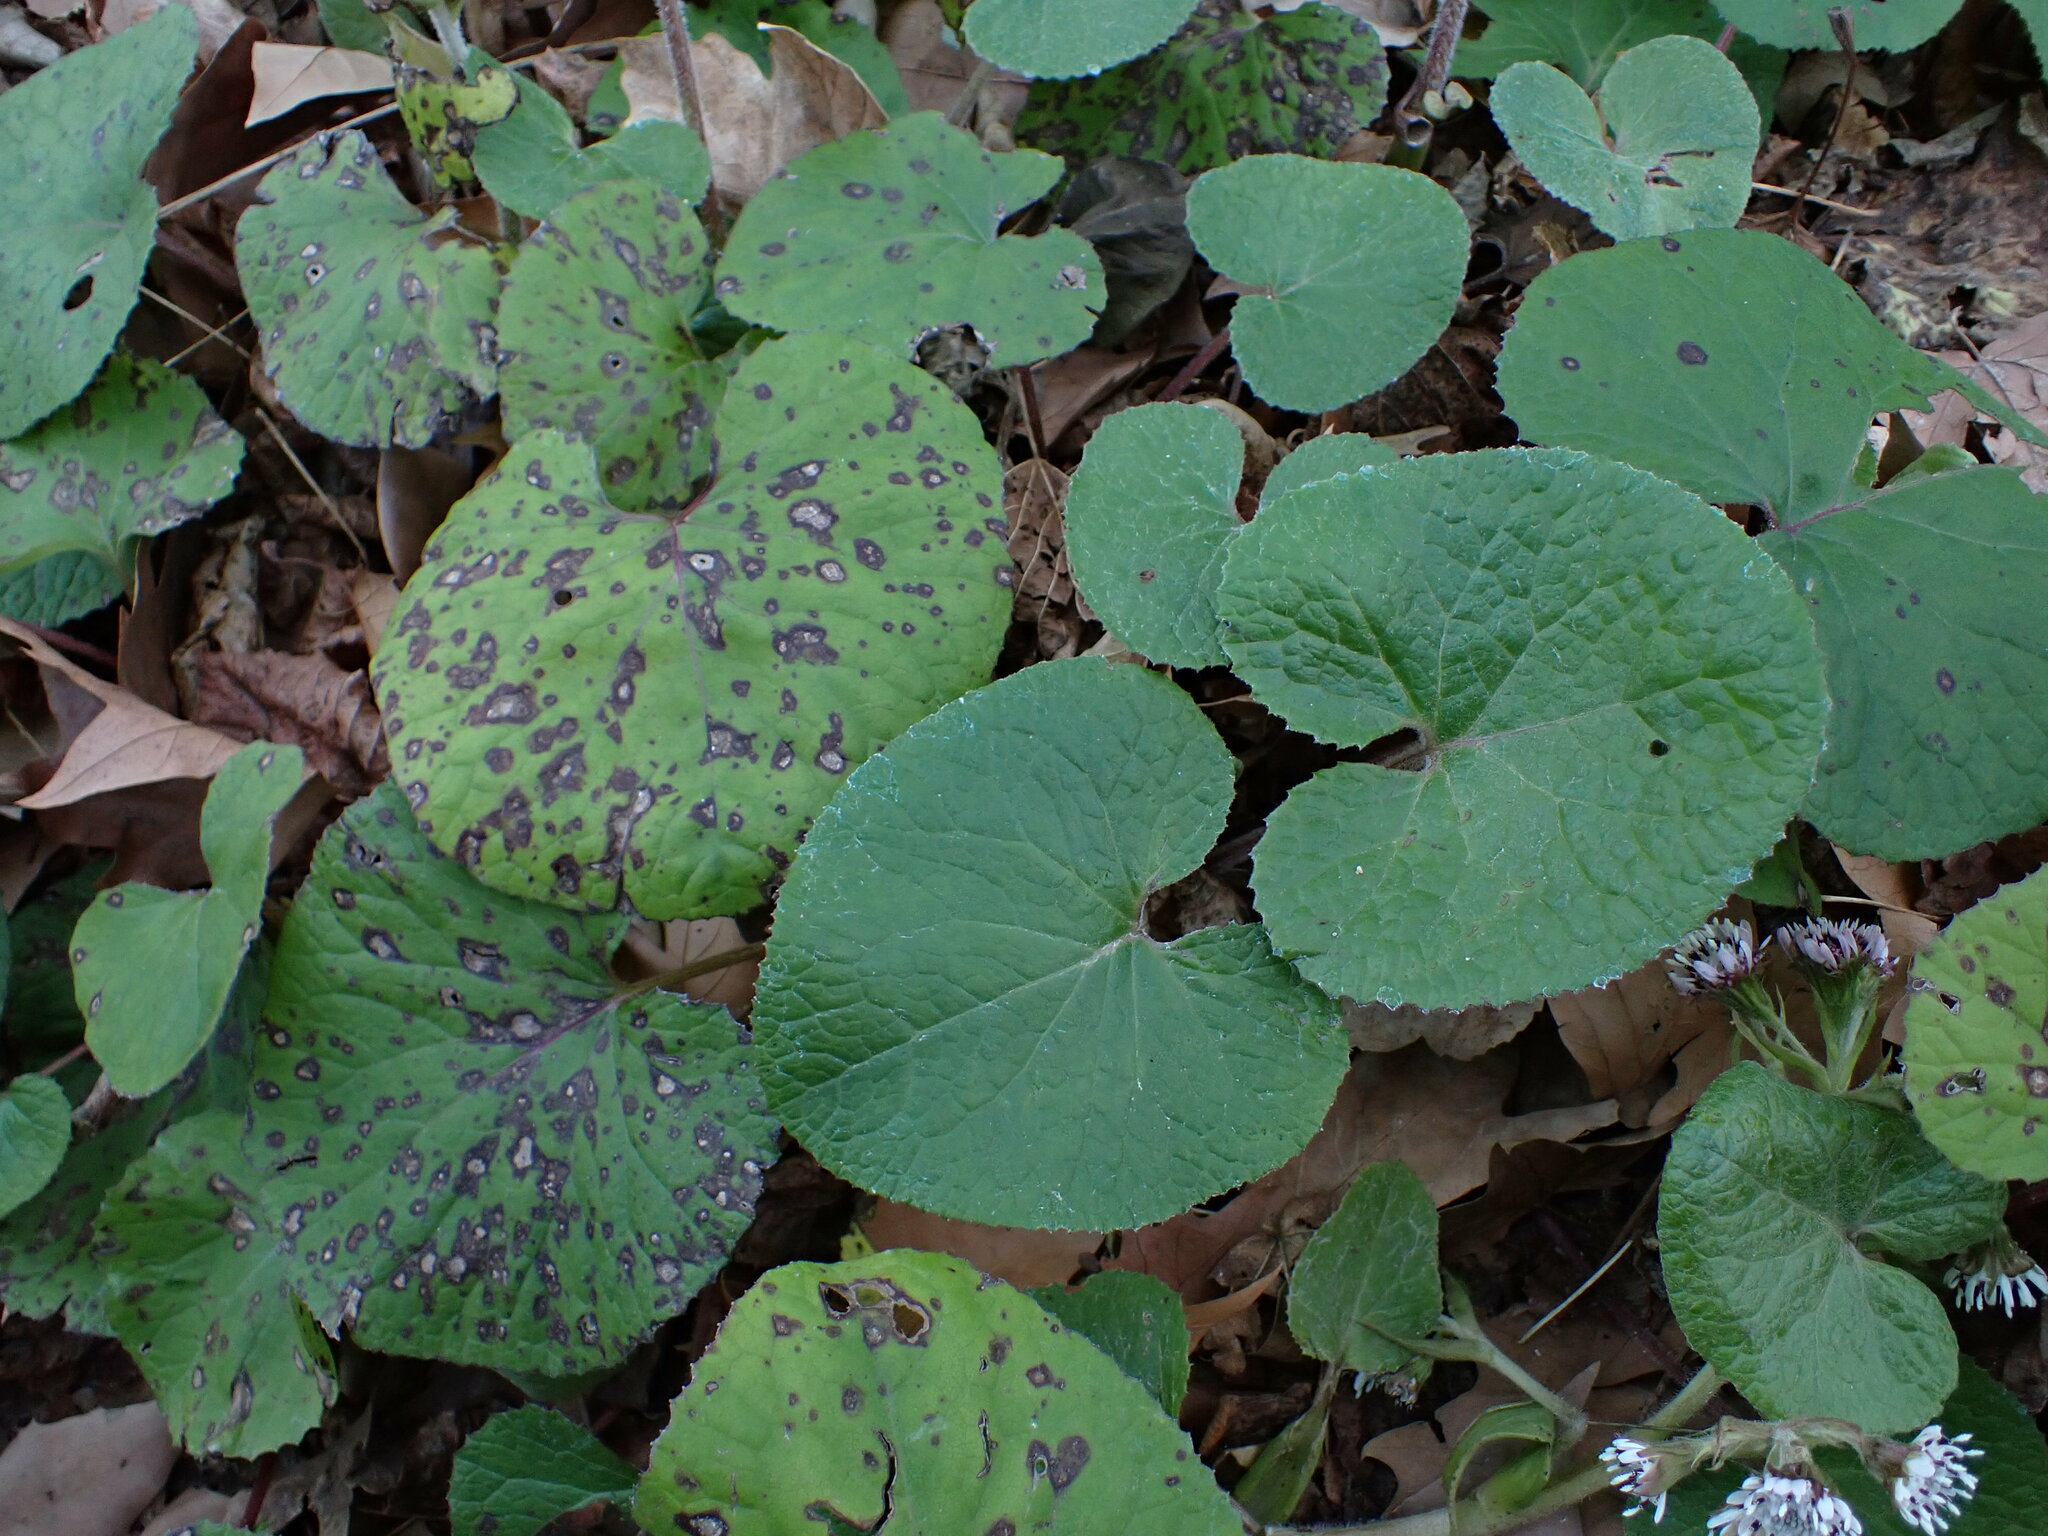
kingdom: Plantae
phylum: Tracheophyta
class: Magnoliopsida
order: Asterales
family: Asteraceae
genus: Petasites
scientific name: Petasites pyrenaicus
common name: Winter heliotrope
